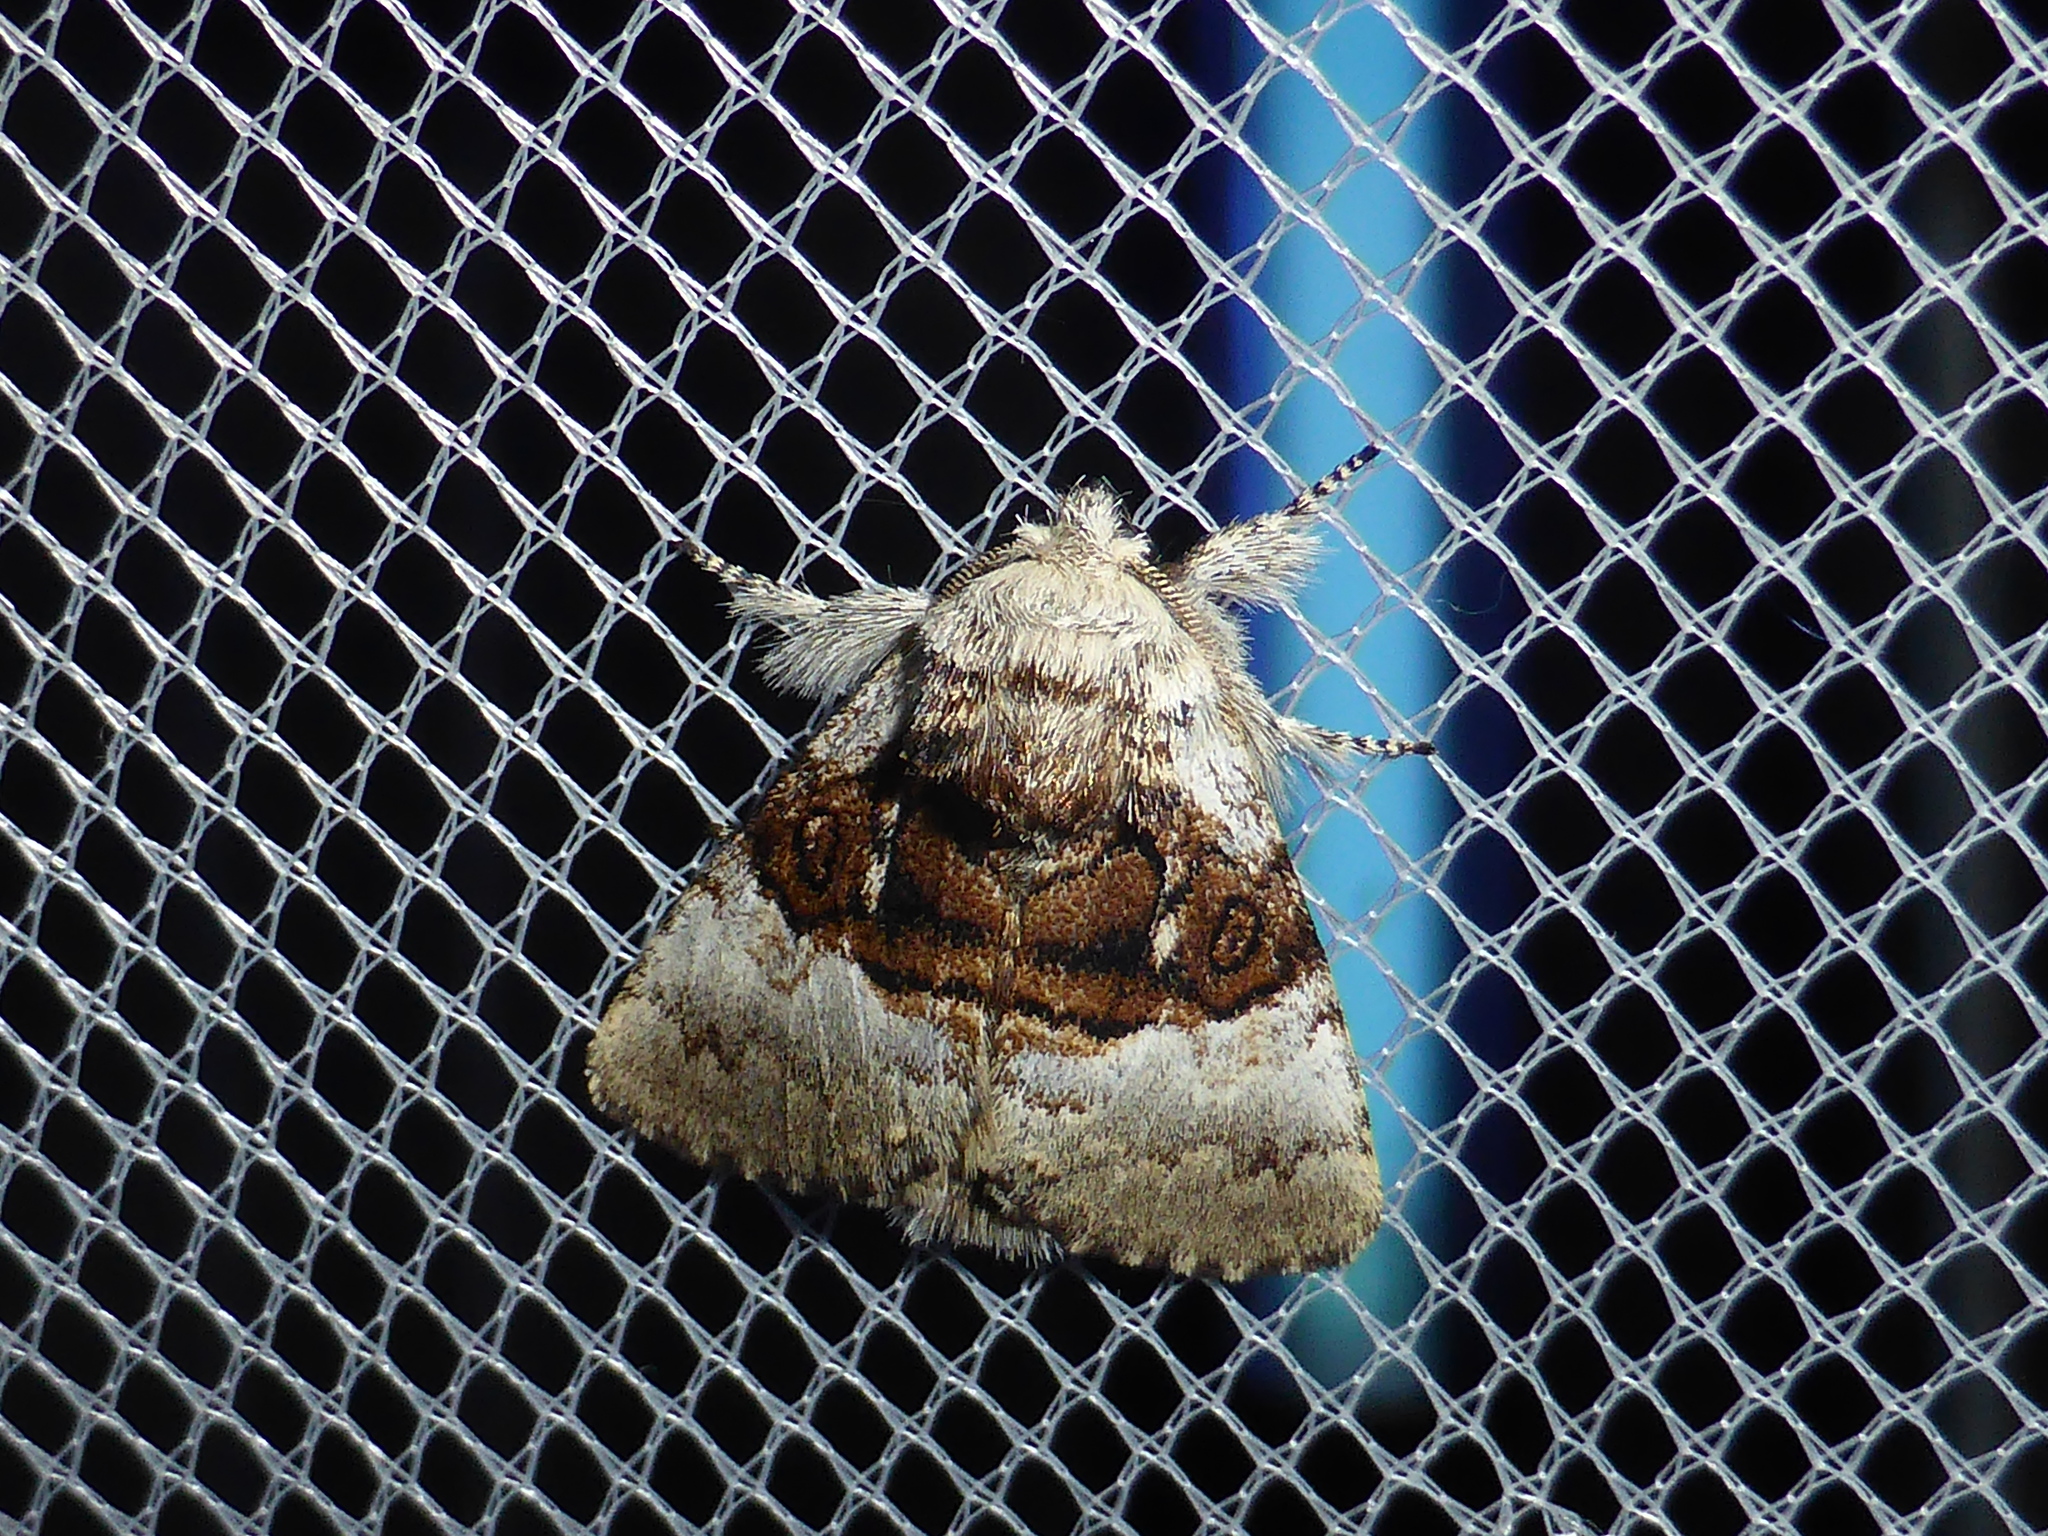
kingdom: Animalia
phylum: Arthropoda
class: Insecta
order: Lepidoptera
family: Noctuidae
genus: Colocasia
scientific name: Colocasia coryli
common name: Nut-tree tussock
